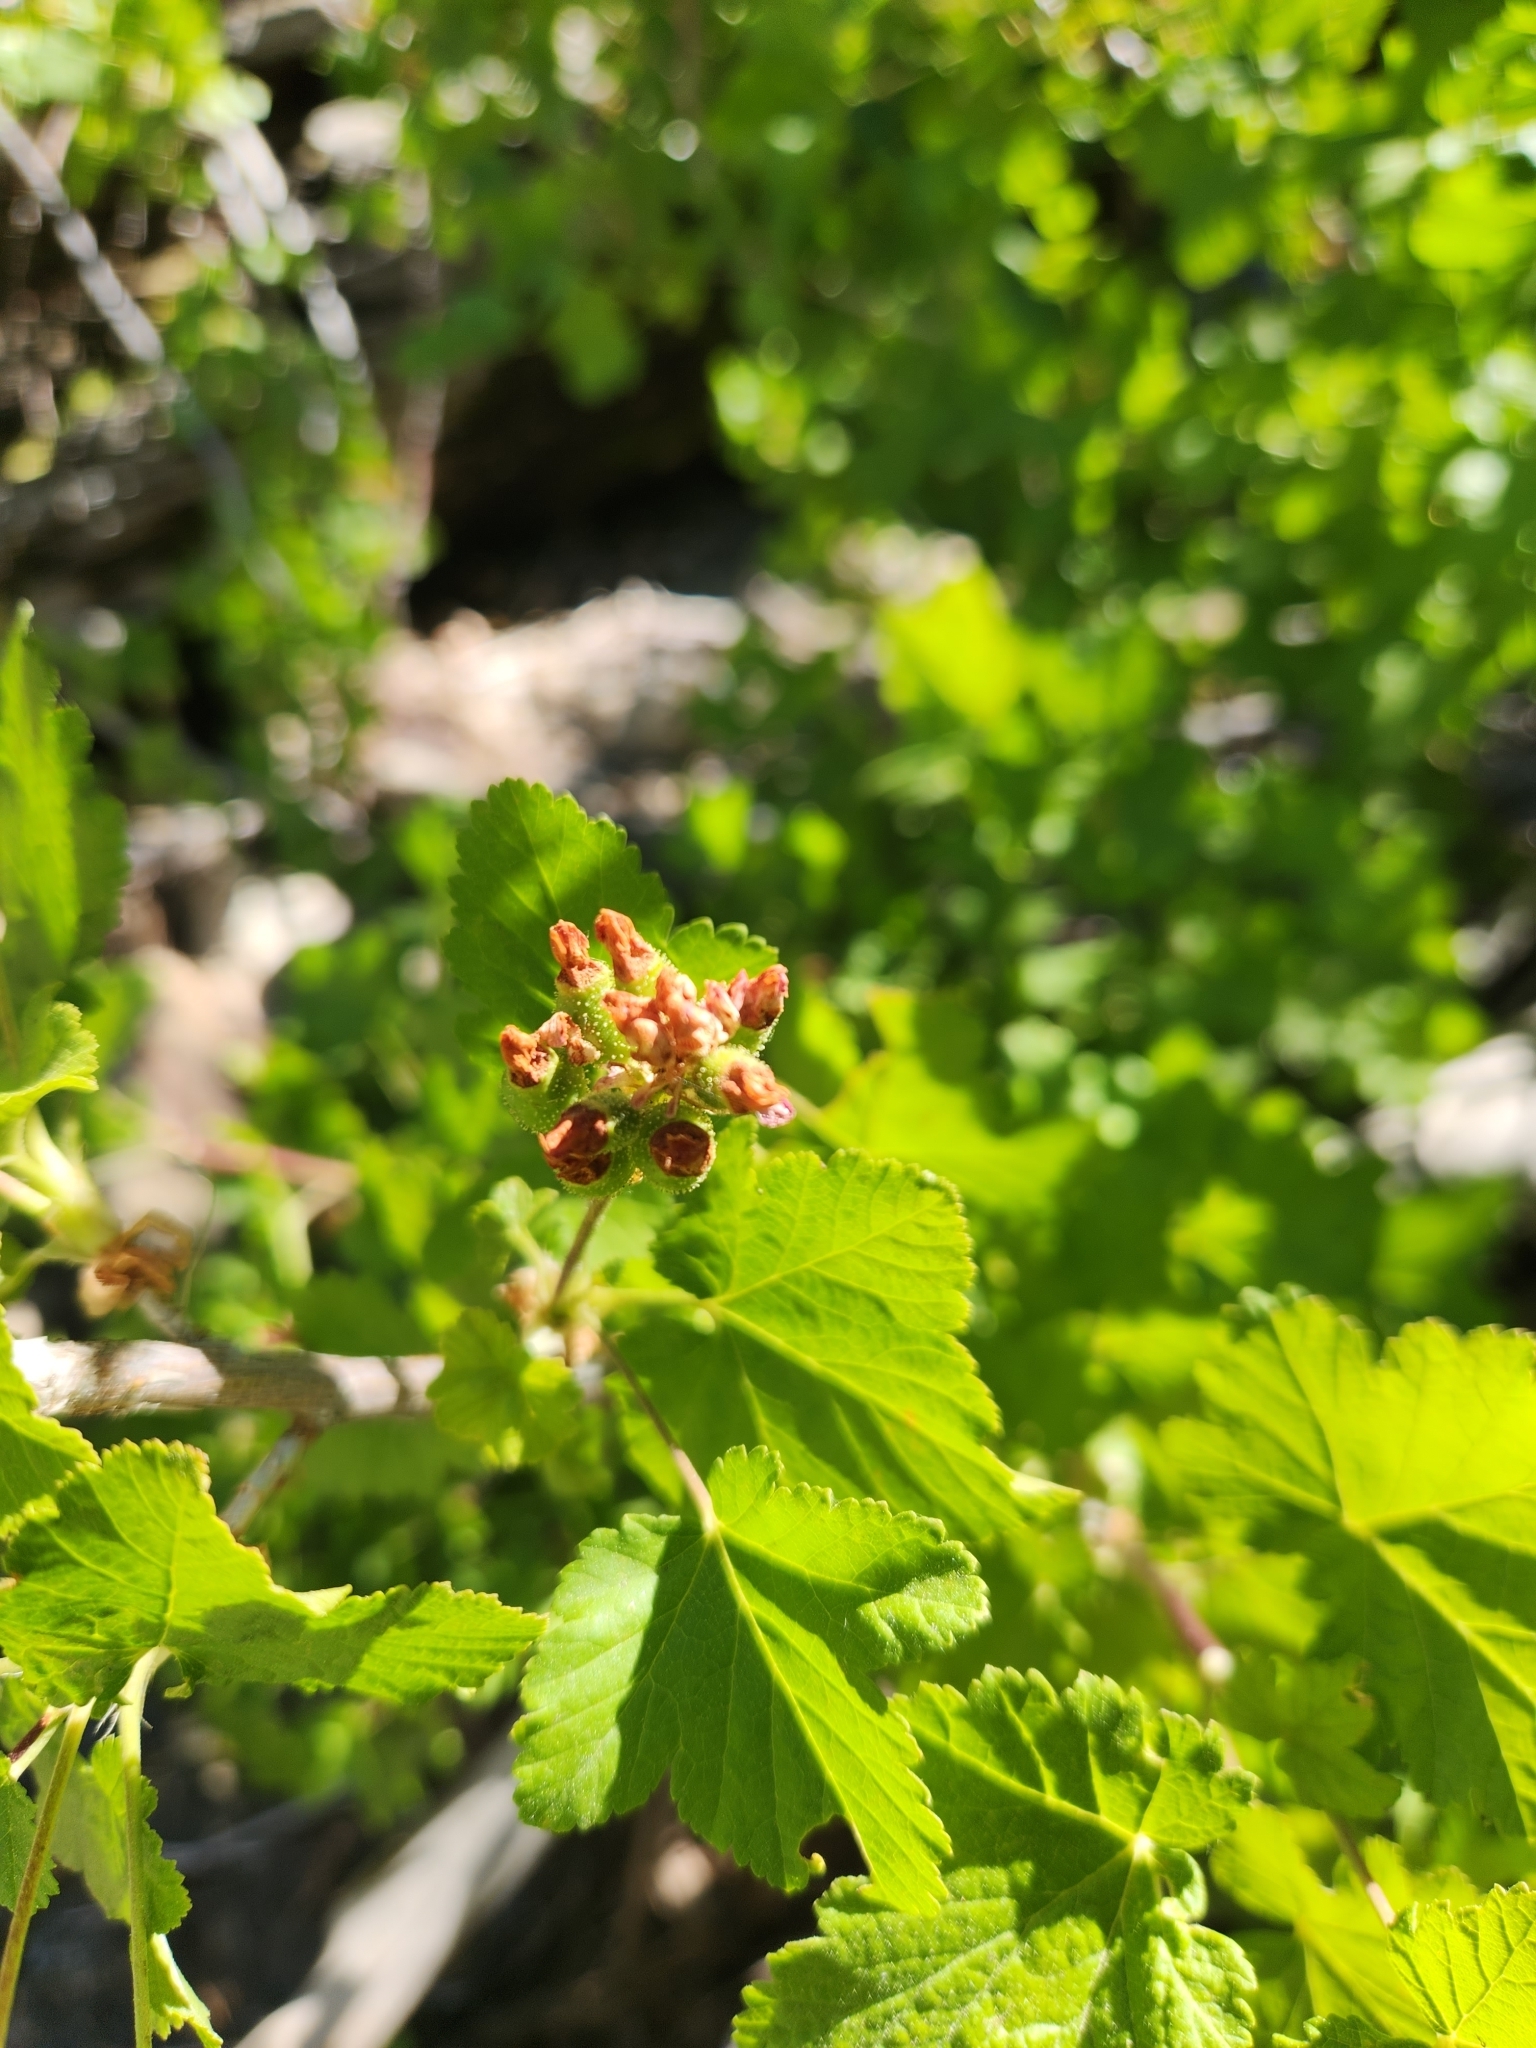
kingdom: Plantae
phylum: Tracheophyta
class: Magnoliopsida
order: Saxifragales
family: Grossulariaceae
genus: Ribes
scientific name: Ribes nevadense
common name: Mountain pink currant
